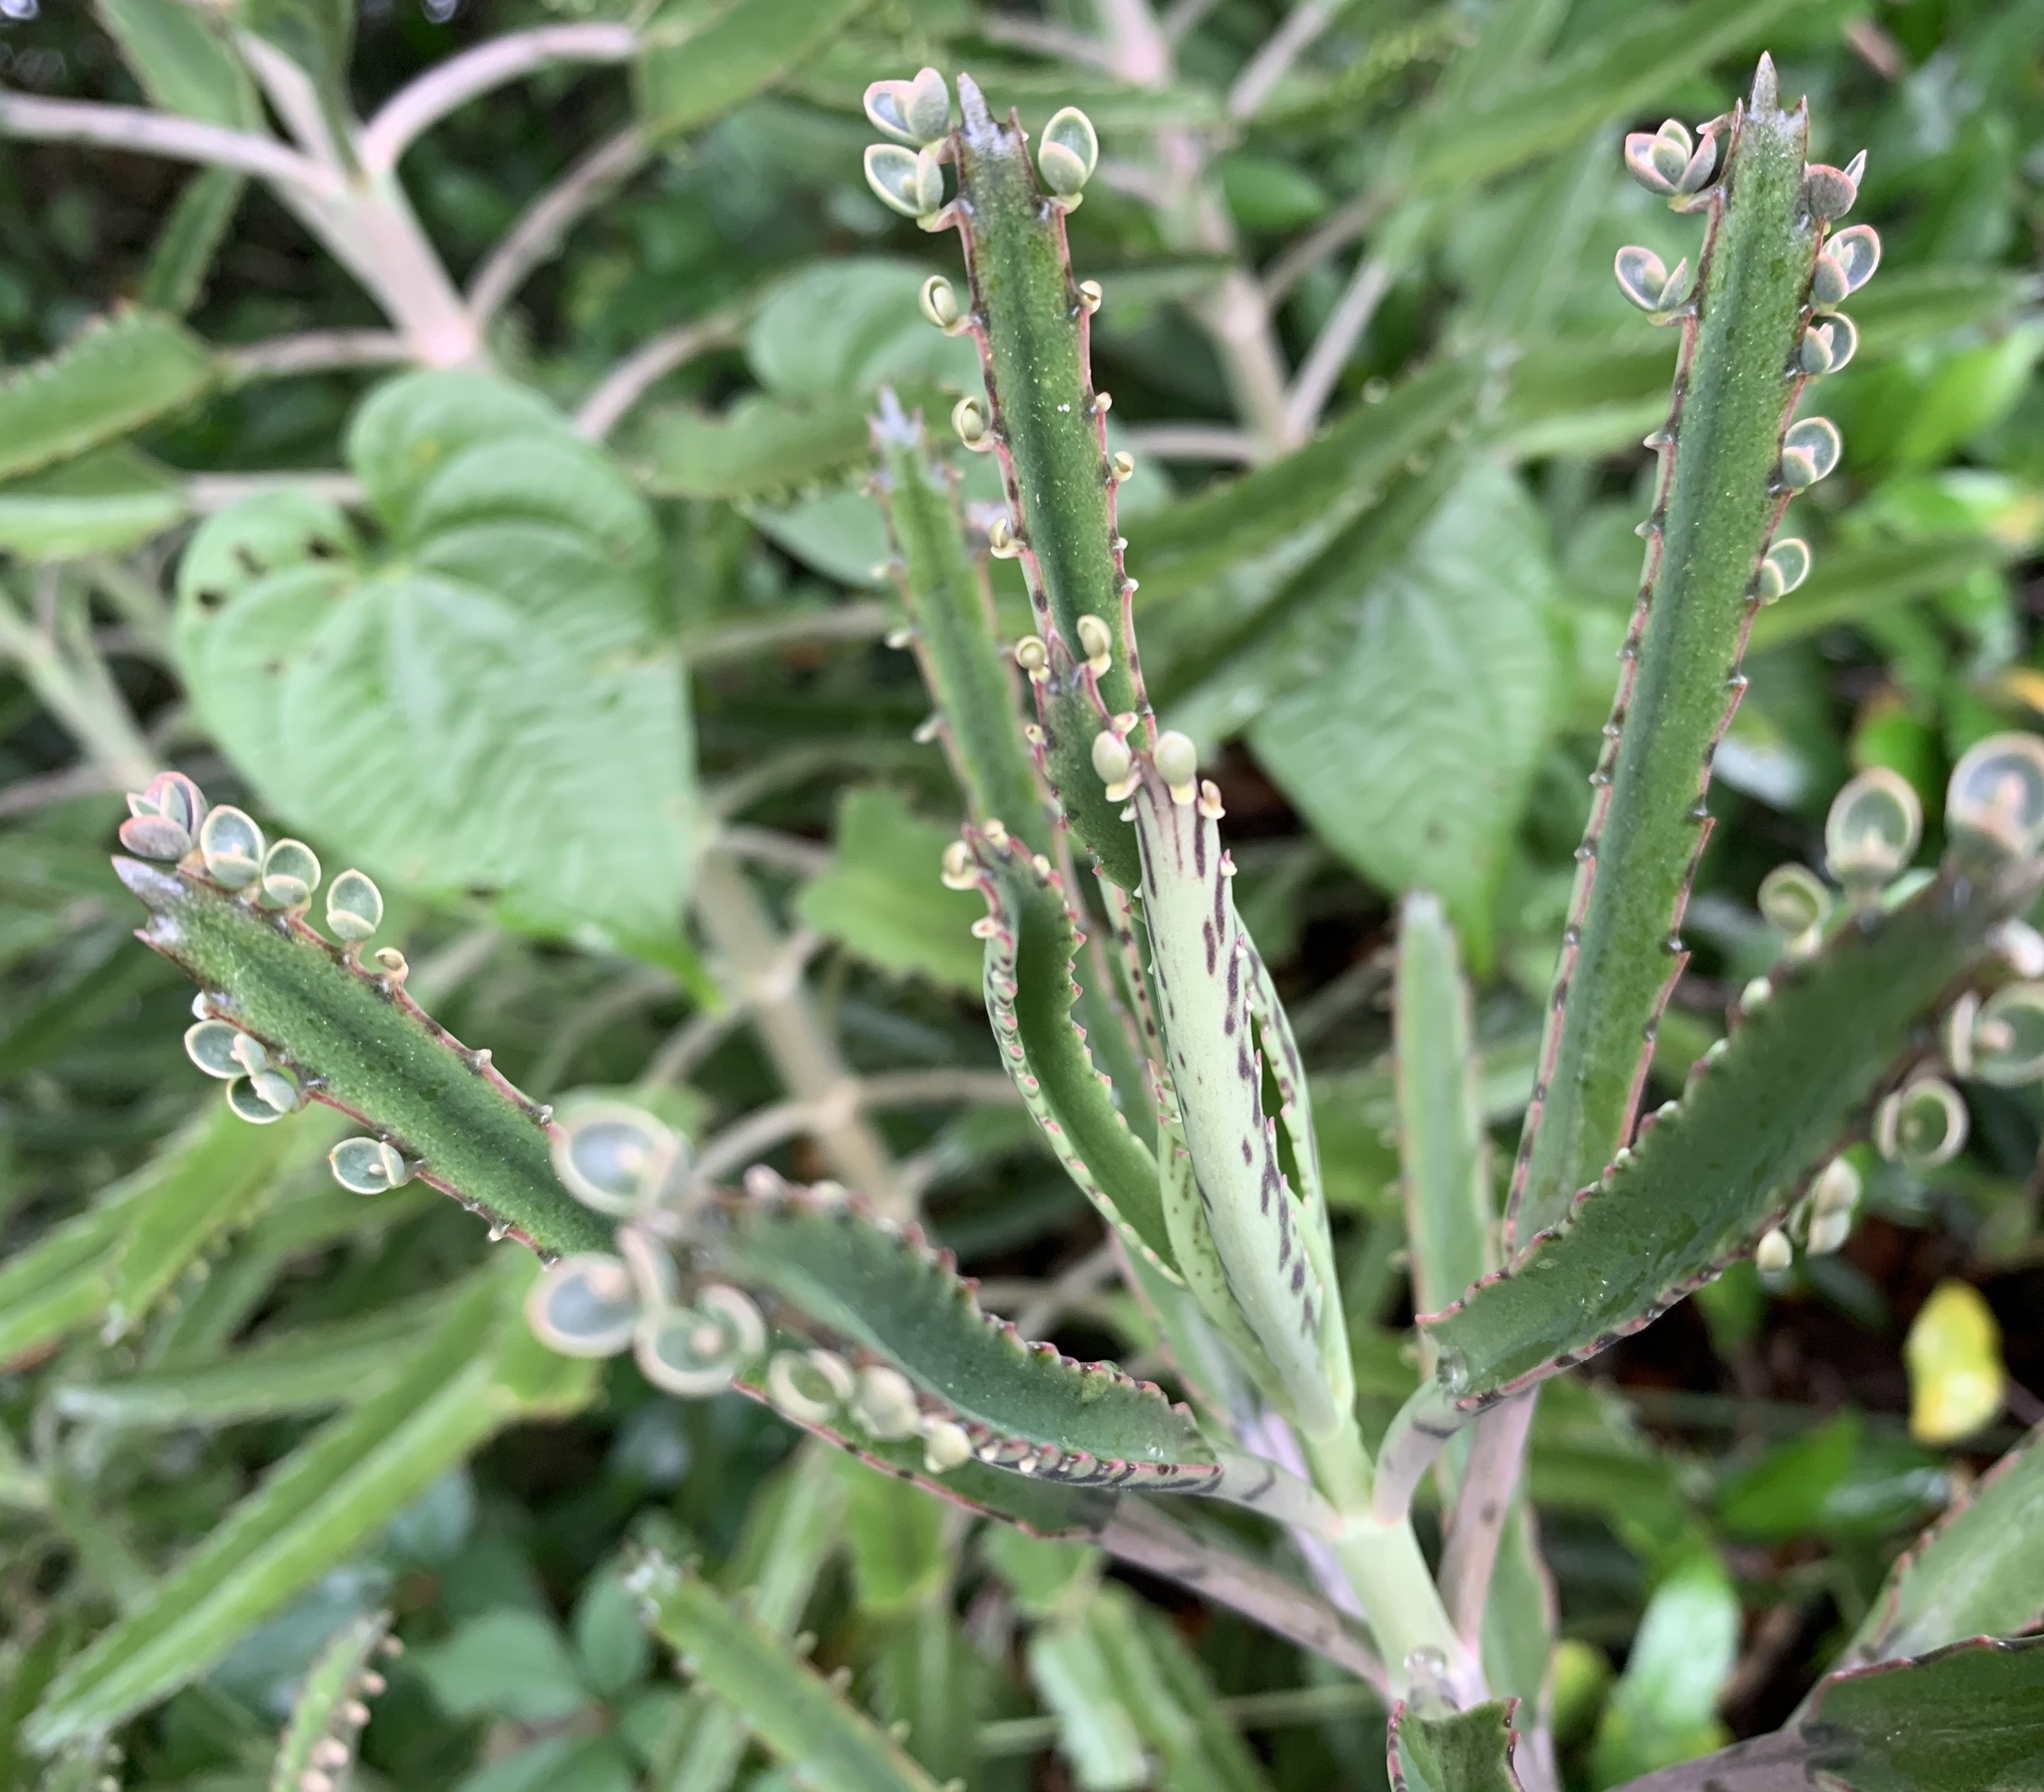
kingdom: Plantae
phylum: Tracheophyta
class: Magnoliopsida
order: Saxifragales
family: Crassulaceae
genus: Kalanchoe
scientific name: Kalanchoe houghtonii
